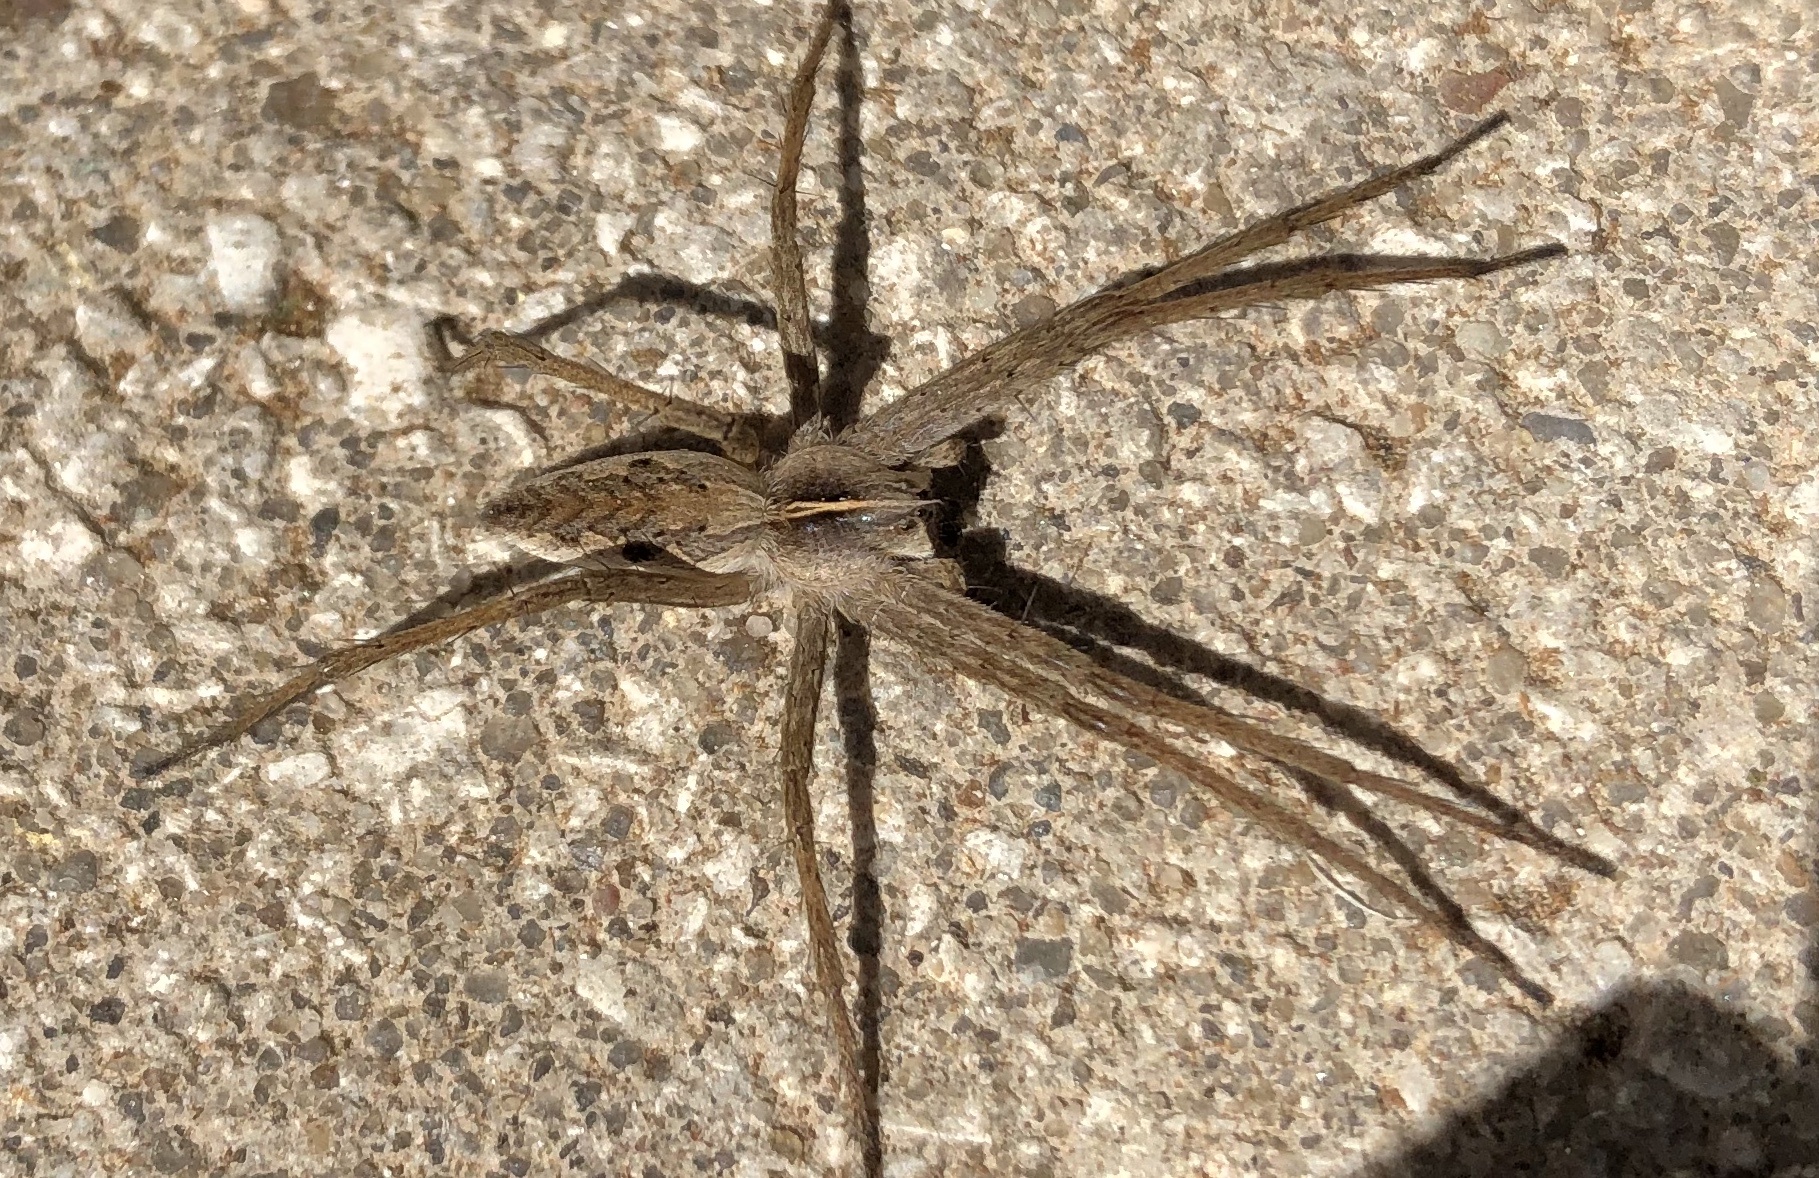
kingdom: Animalia
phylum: Arthropoda
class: Arachnida
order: Araneae
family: Pisauridae
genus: Pisaura
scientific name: Pisaura mirabilis
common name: Tent spider
